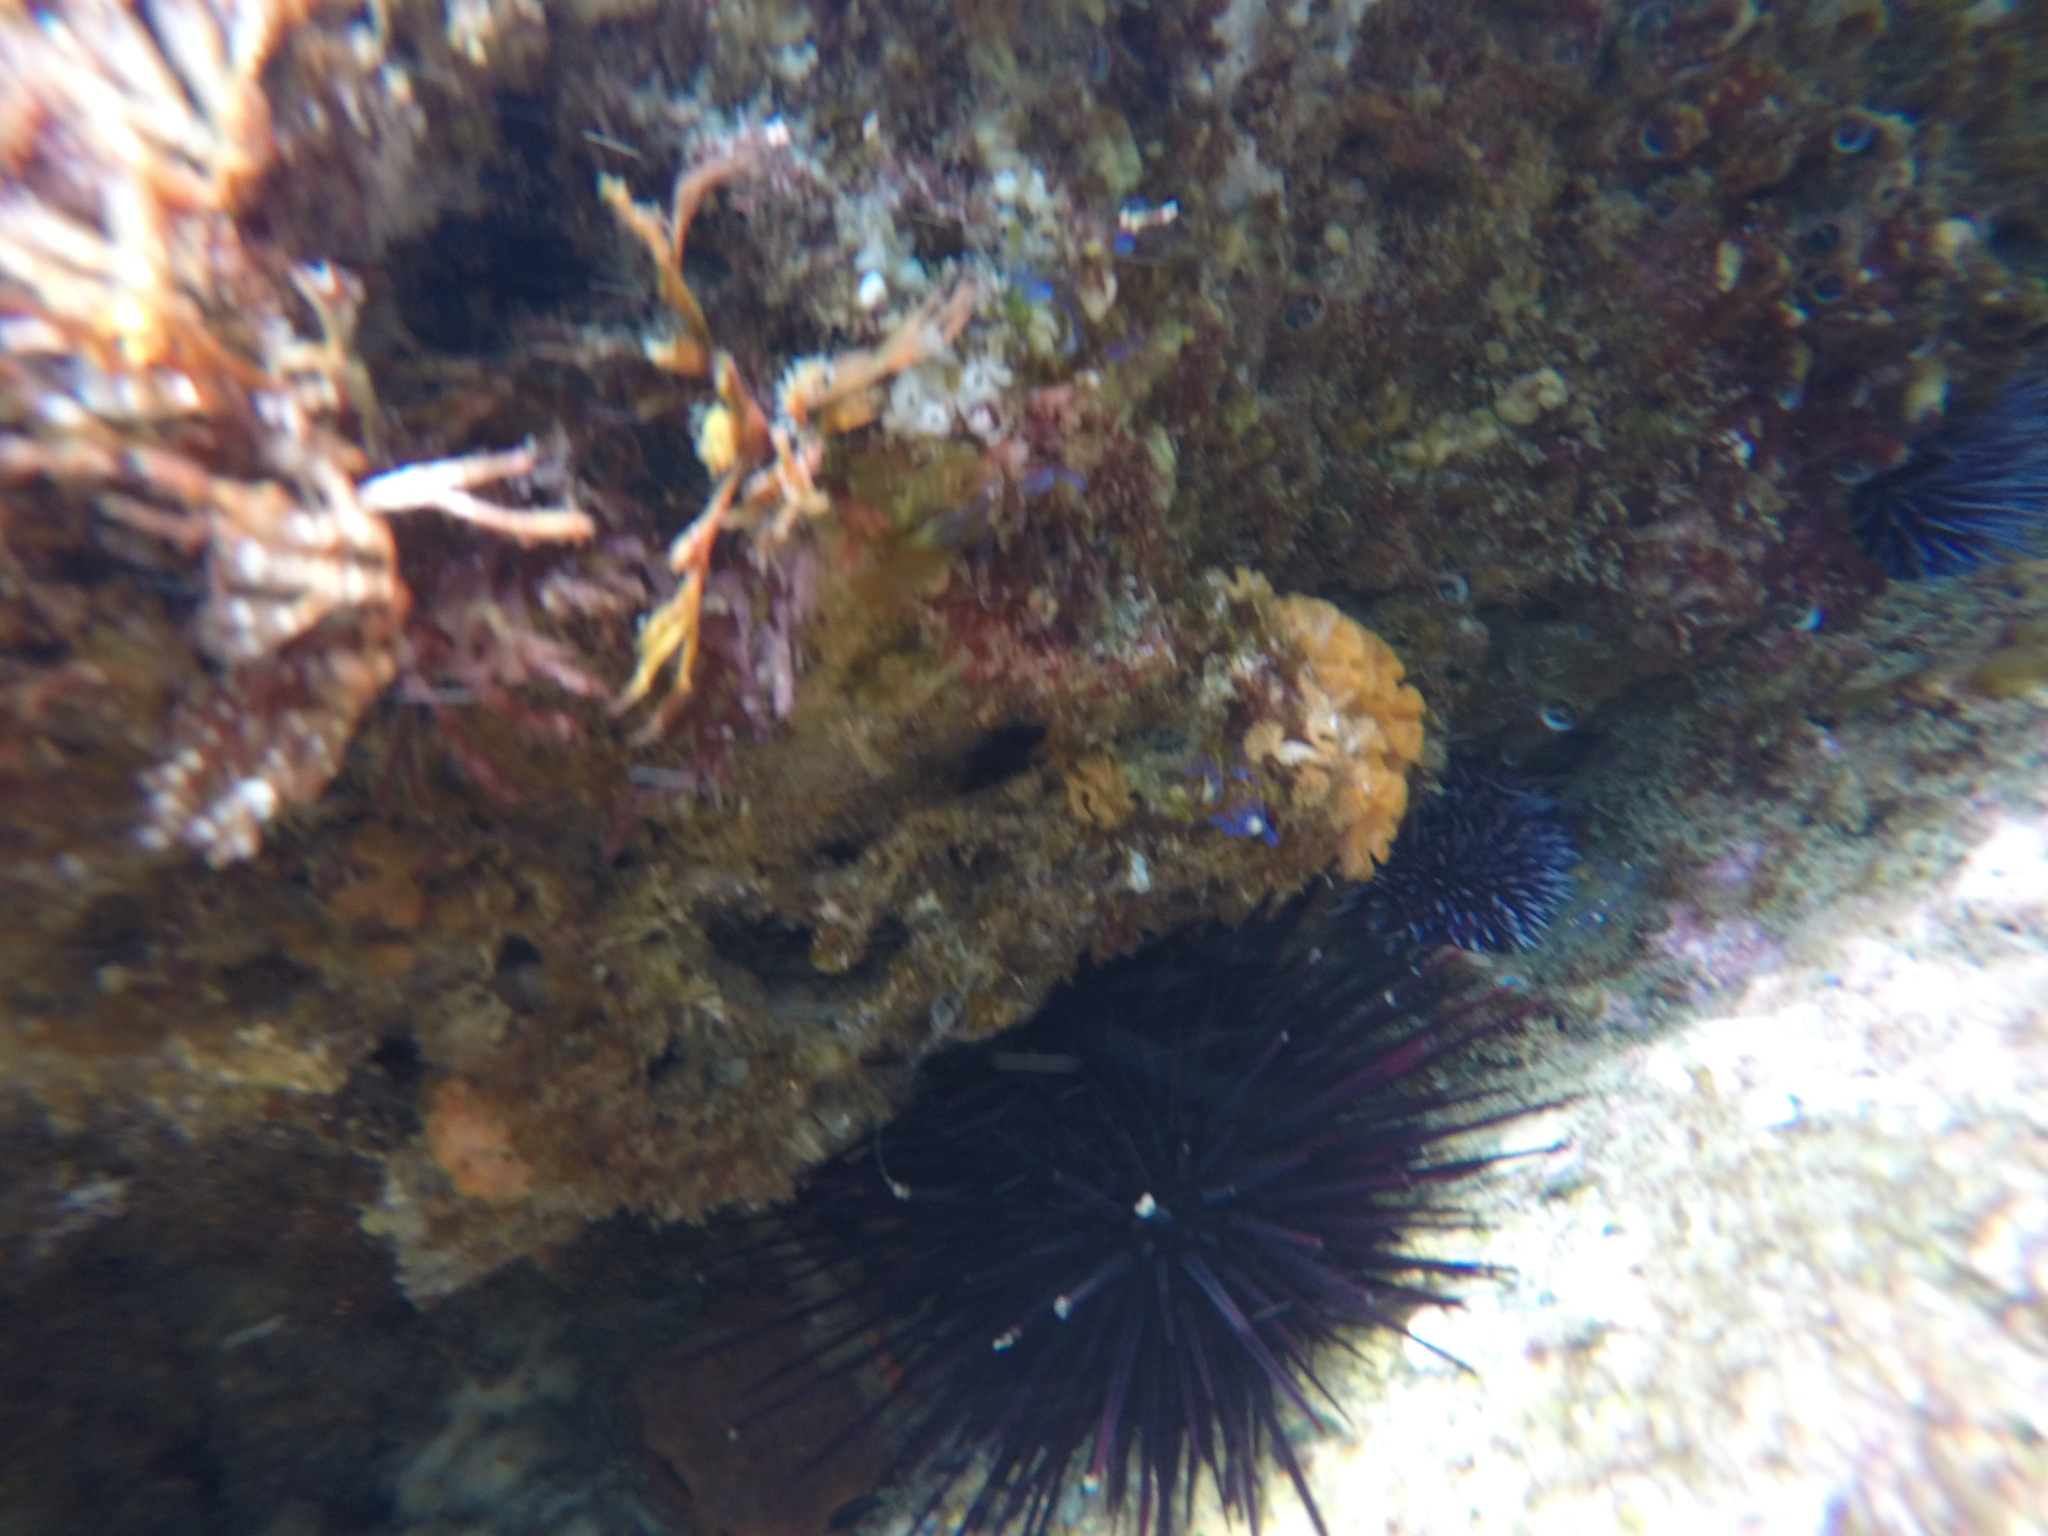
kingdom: Animalia
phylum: Echinodermata
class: Echinoidea
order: Camarodonta
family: Strongylocentrotidae
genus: Mesocentrotus
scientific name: Mesocentrotus franciscanus
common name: Red sea urchin
